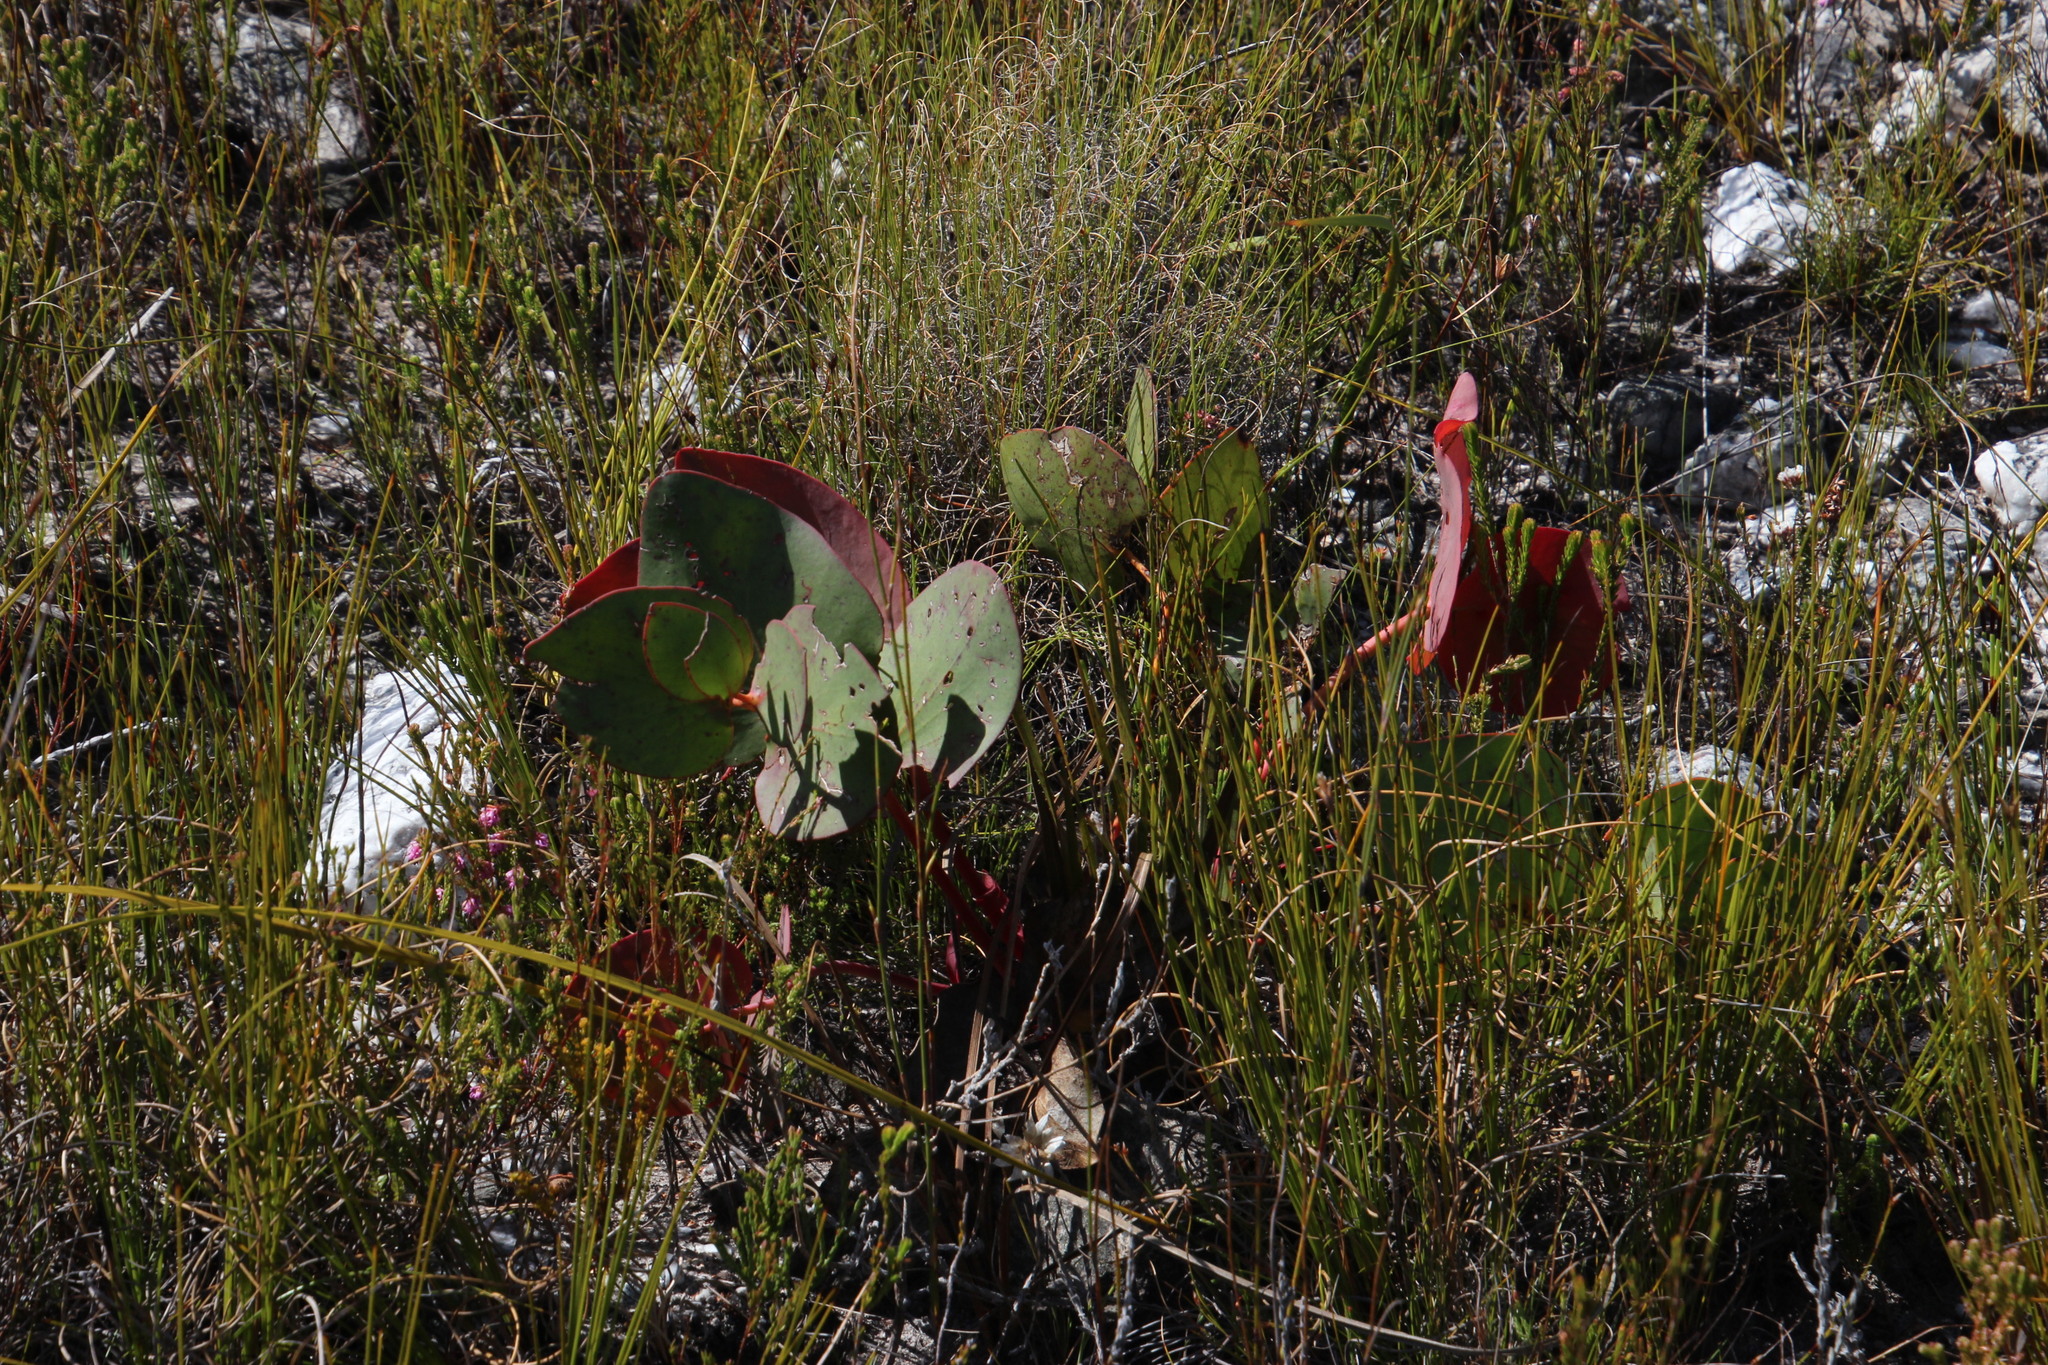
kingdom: Plantae
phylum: Tracheophyta
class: Magnoliopsida
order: Proteales
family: Proteaceae
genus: Protea
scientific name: Protea cordata
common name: Heart-leaf sugarbush
